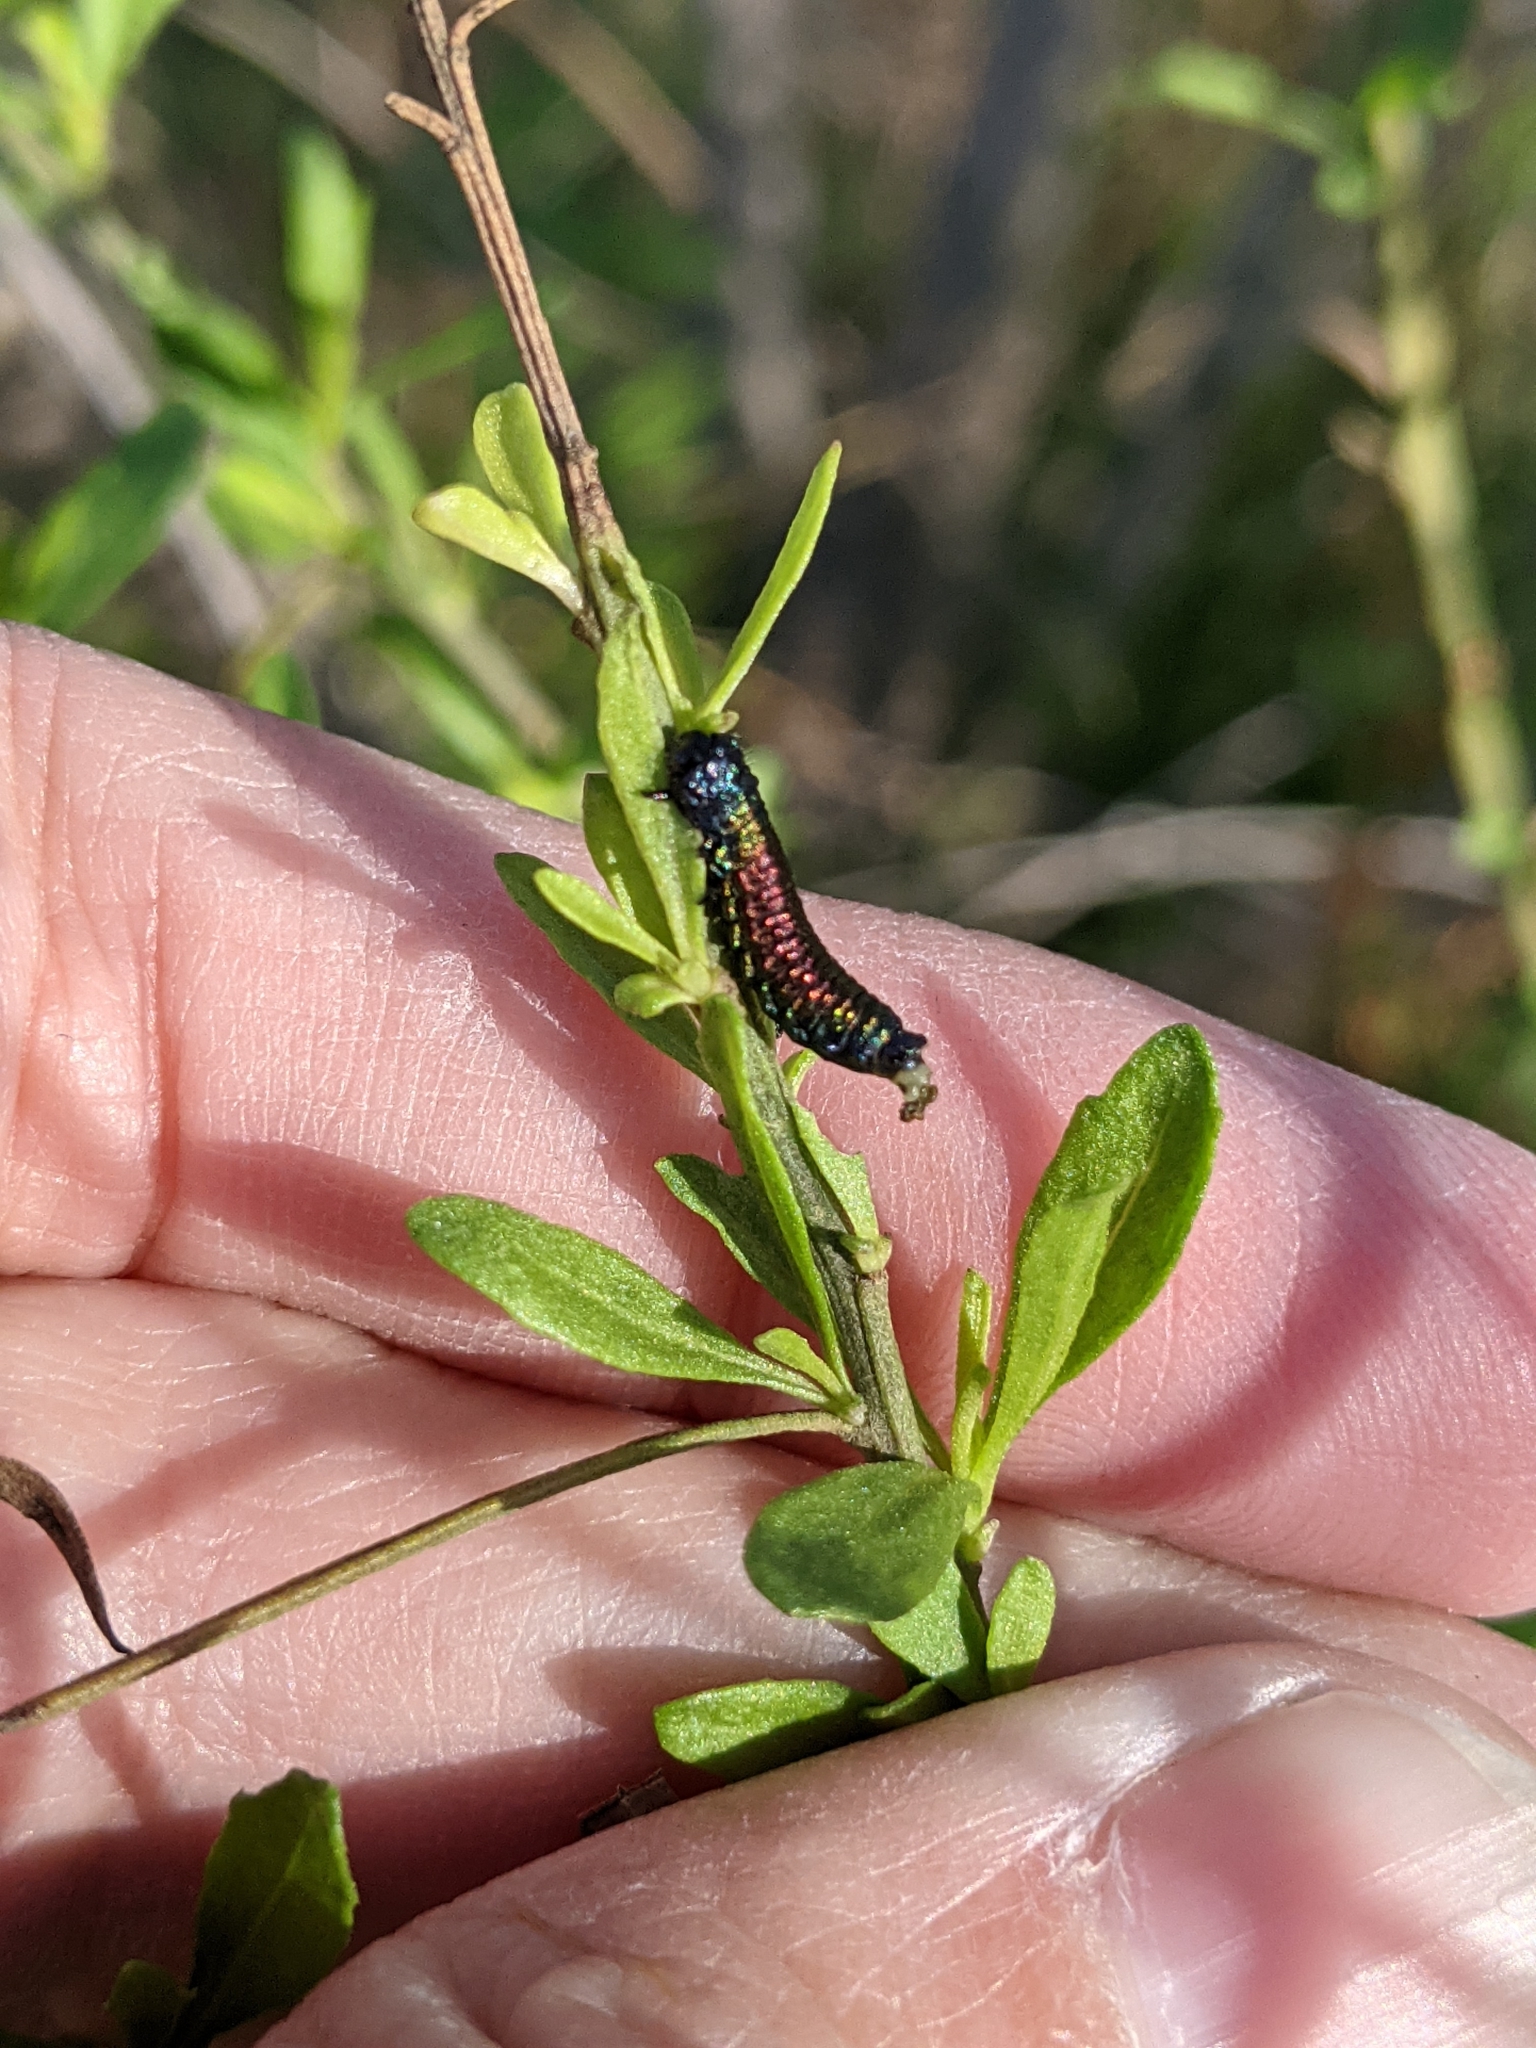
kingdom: Animalia
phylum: Arthropoda
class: Insecta
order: Coleoptera
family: Chrysomelidae
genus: Trirhabda
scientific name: Trirhabda bacharidis
